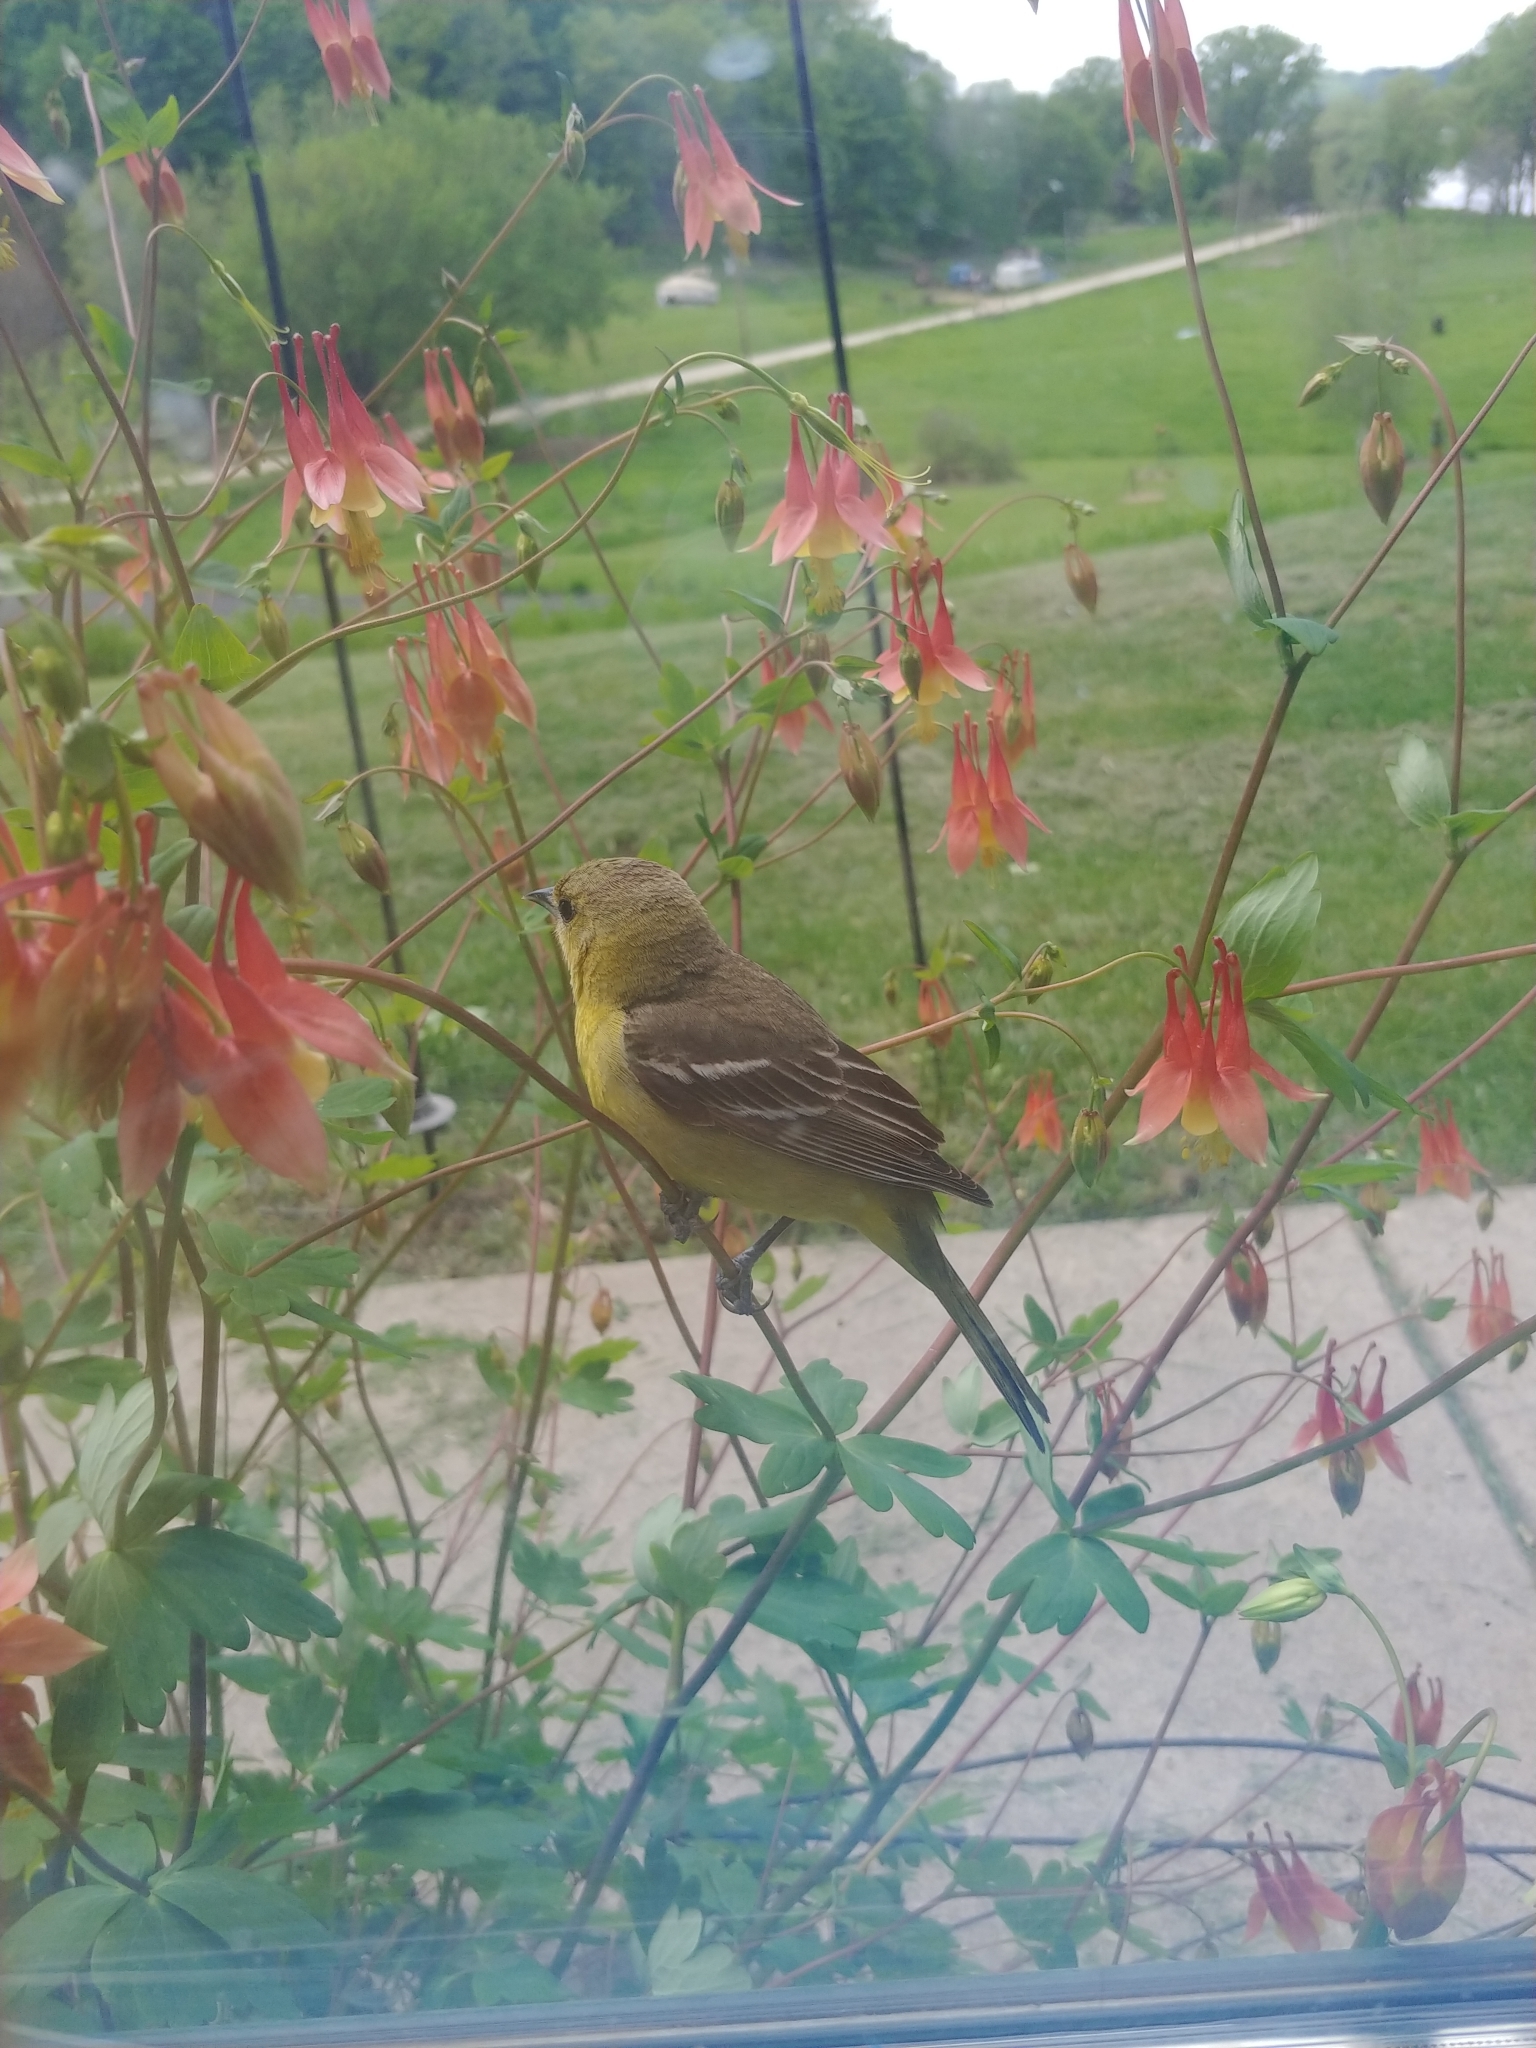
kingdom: Animalia
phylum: Chordata
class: Aves
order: Passeriformes
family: Icteridae
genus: Icterus
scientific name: Icterus spurius
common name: Orchard oriole
